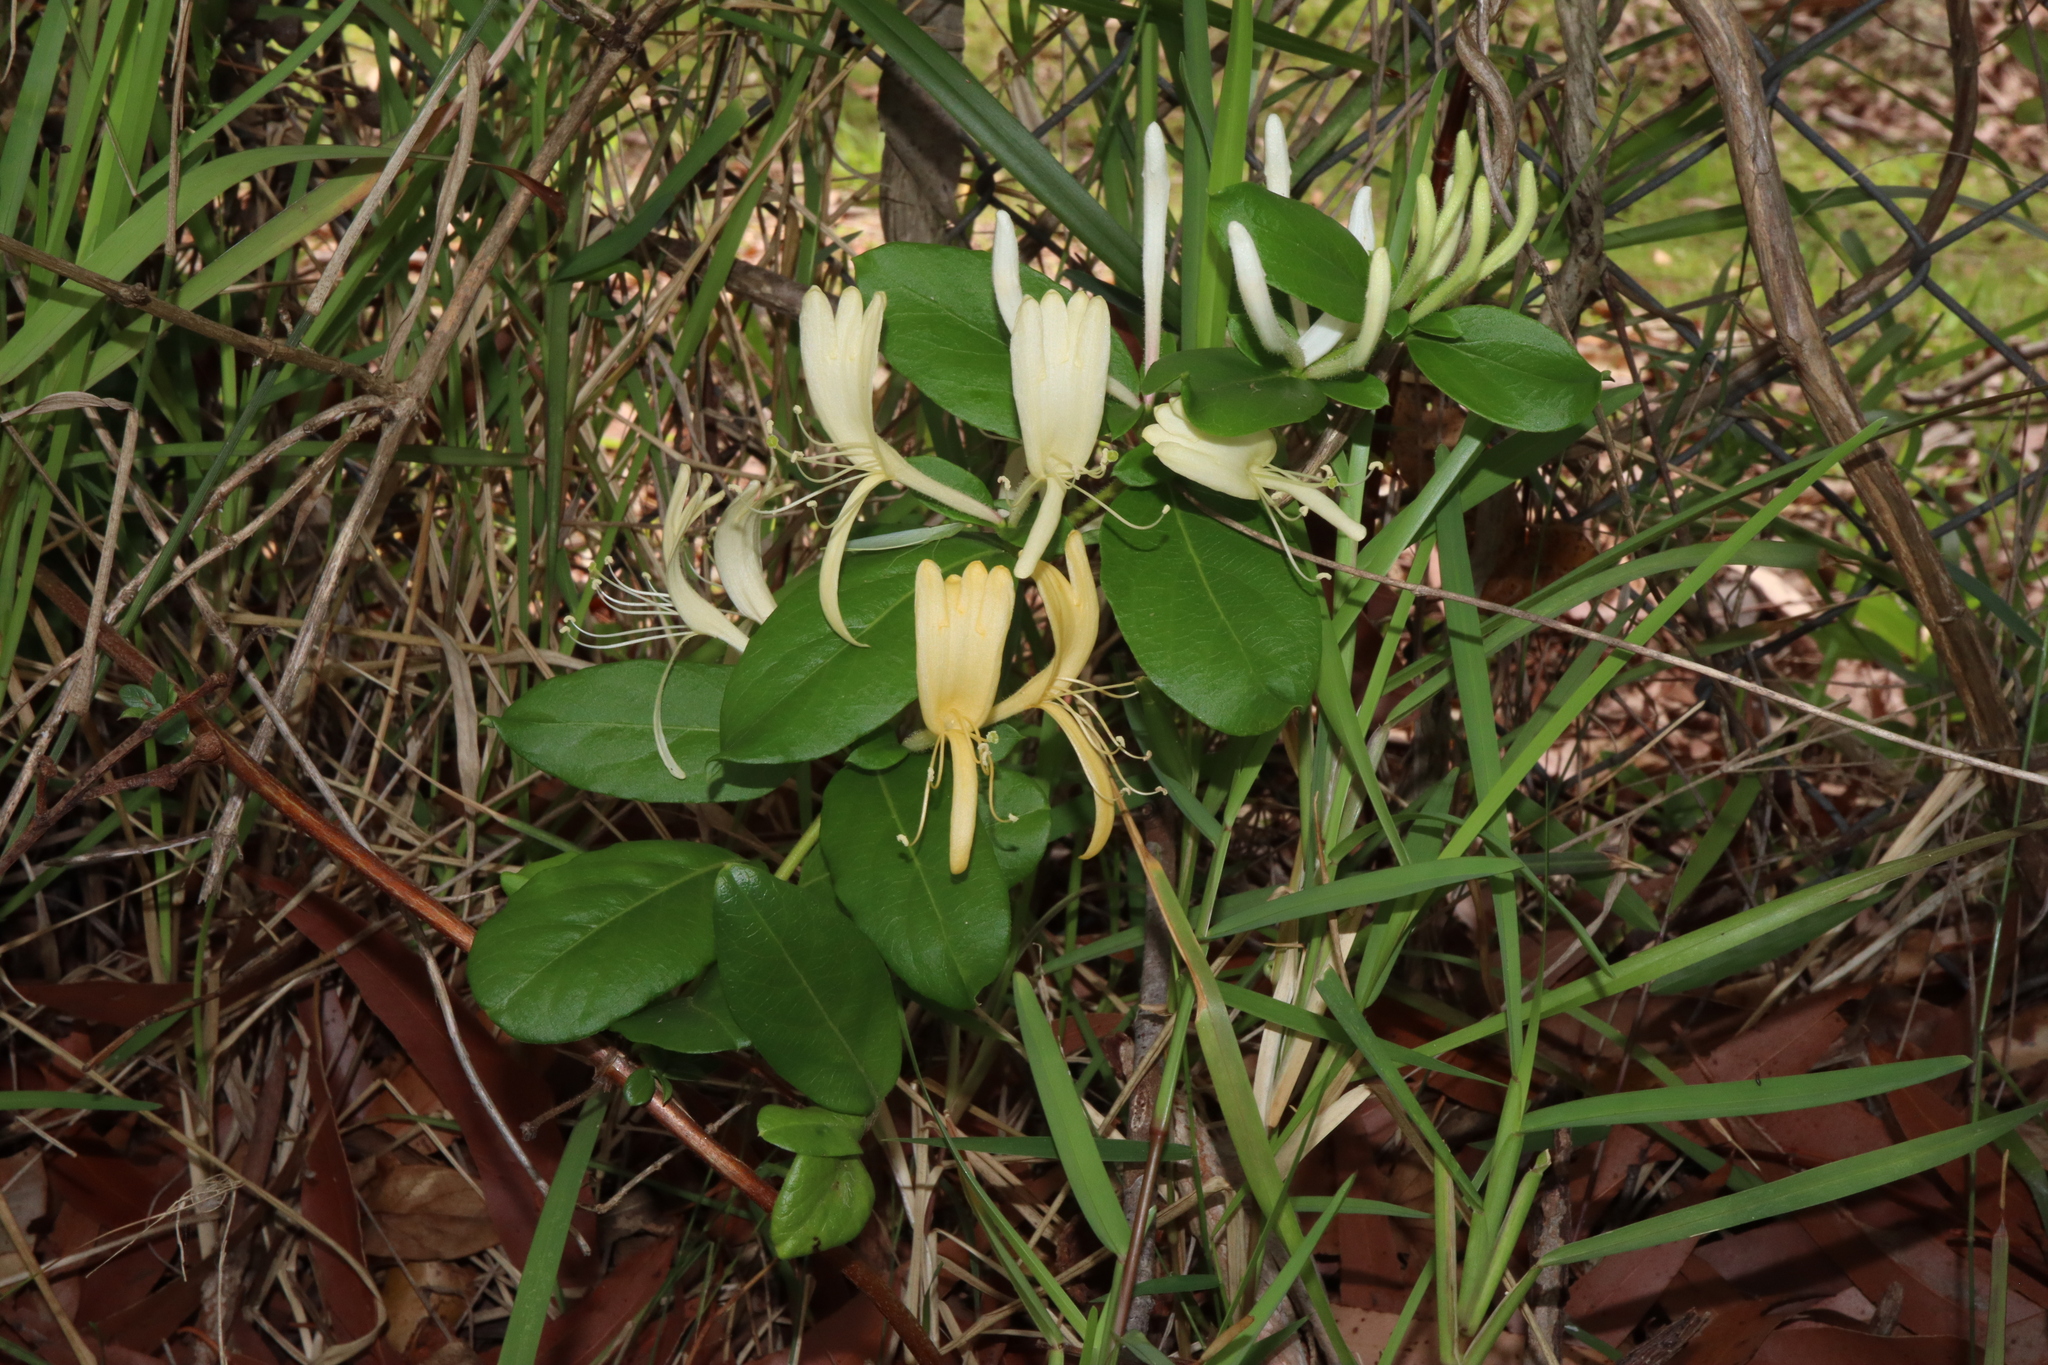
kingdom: Plantae
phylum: Tracheophyta
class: Magnoliopsida
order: Dipsacales
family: Caprifoliaceae
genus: Lonicera
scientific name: Lonicera japonica
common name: Japanese honeysuckle
